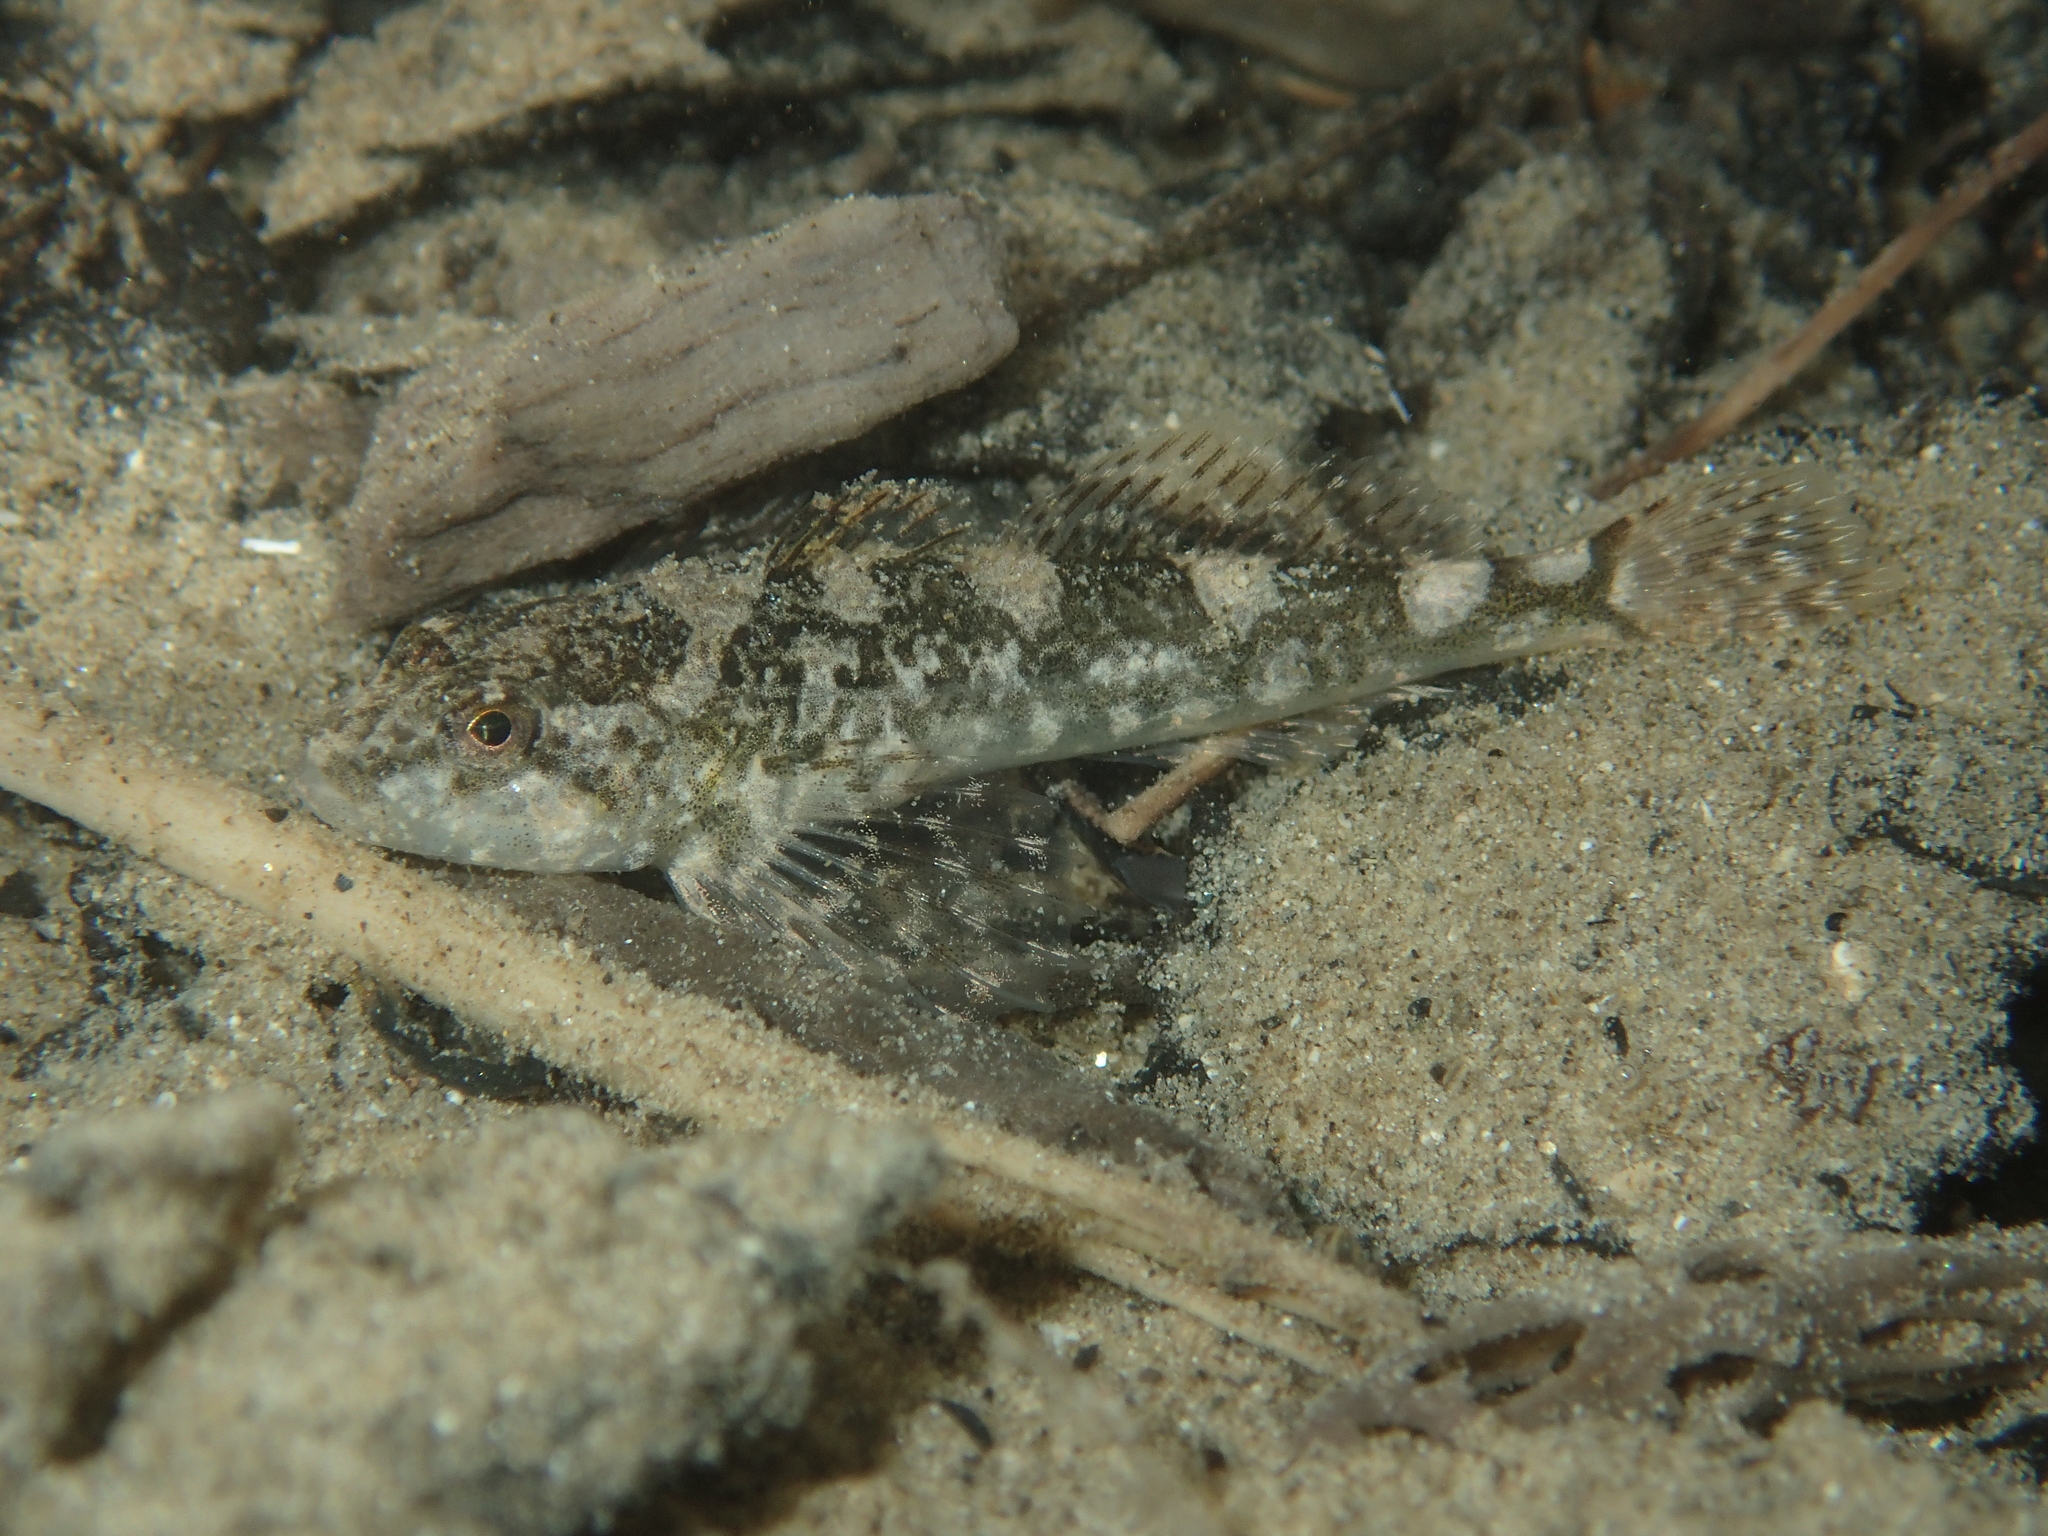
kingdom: Animalia
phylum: Chordata
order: Scorpaeniformes
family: Cottidae
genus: Cottus
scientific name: Cottus rondeleti
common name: Hérault sculpin
